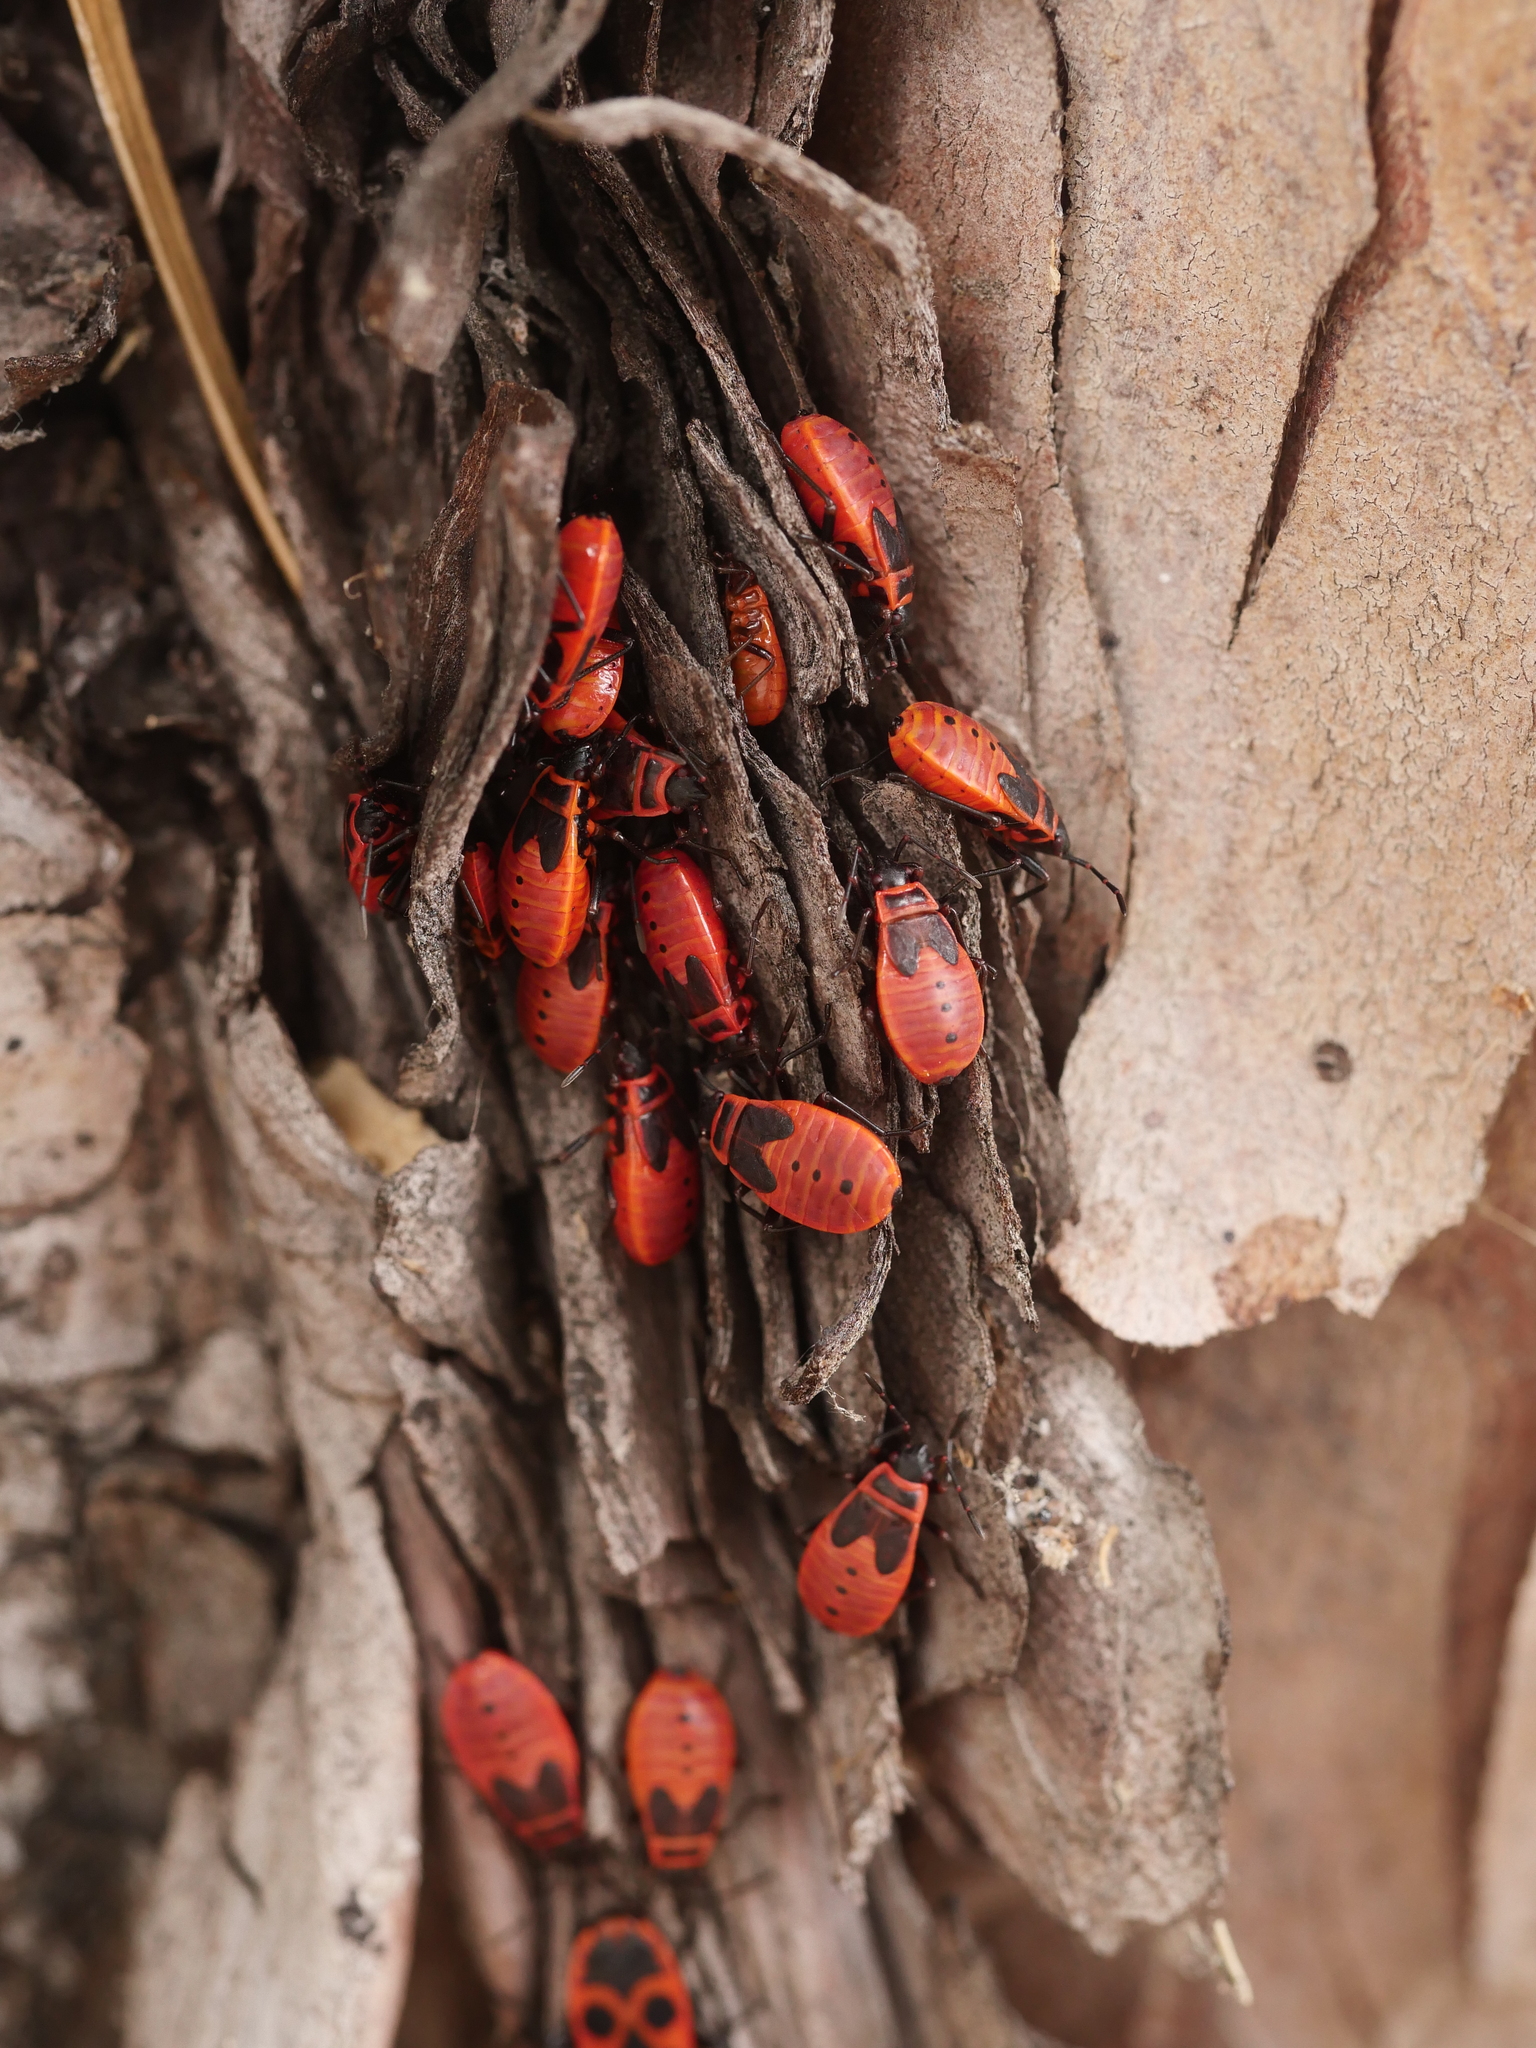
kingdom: Animalia
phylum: Arthropoda
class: Insecta
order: Hemiptera
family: Pyrrhocoridae
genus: Pyrrhocoris
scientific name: Pyrrhocoris apterus
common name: Firebug
